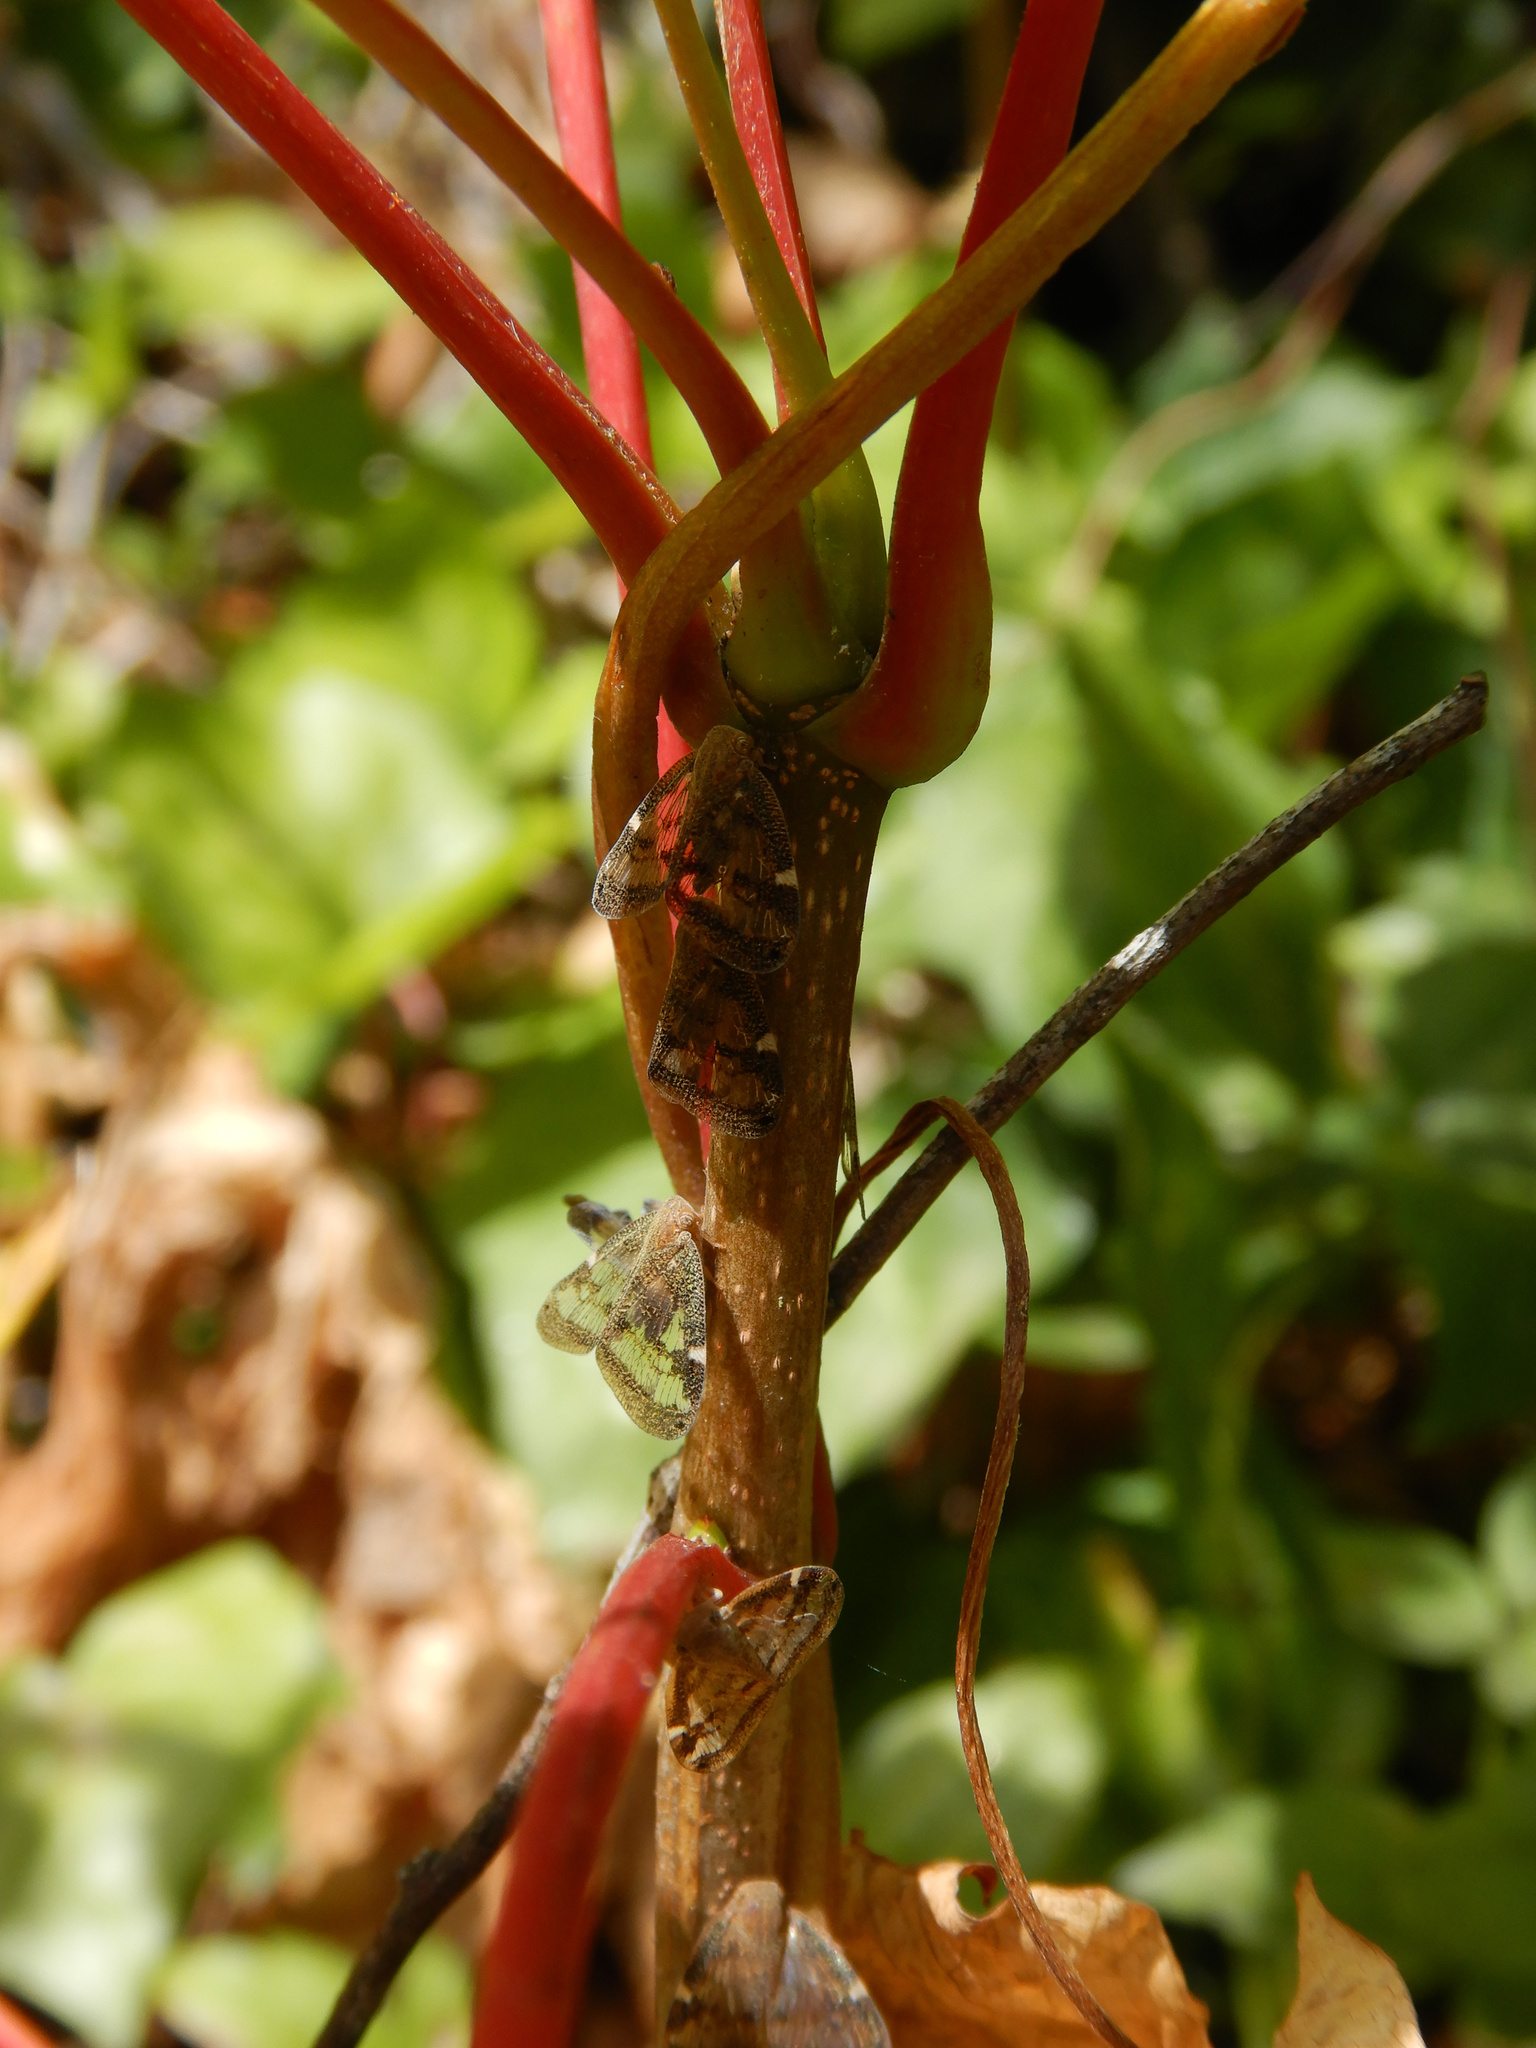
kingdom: Animalia
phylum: Arthropoda
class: Insecta
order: Hemiptera
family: Ricaniidae
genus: Scolypopa
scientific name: Scolypopa australis
